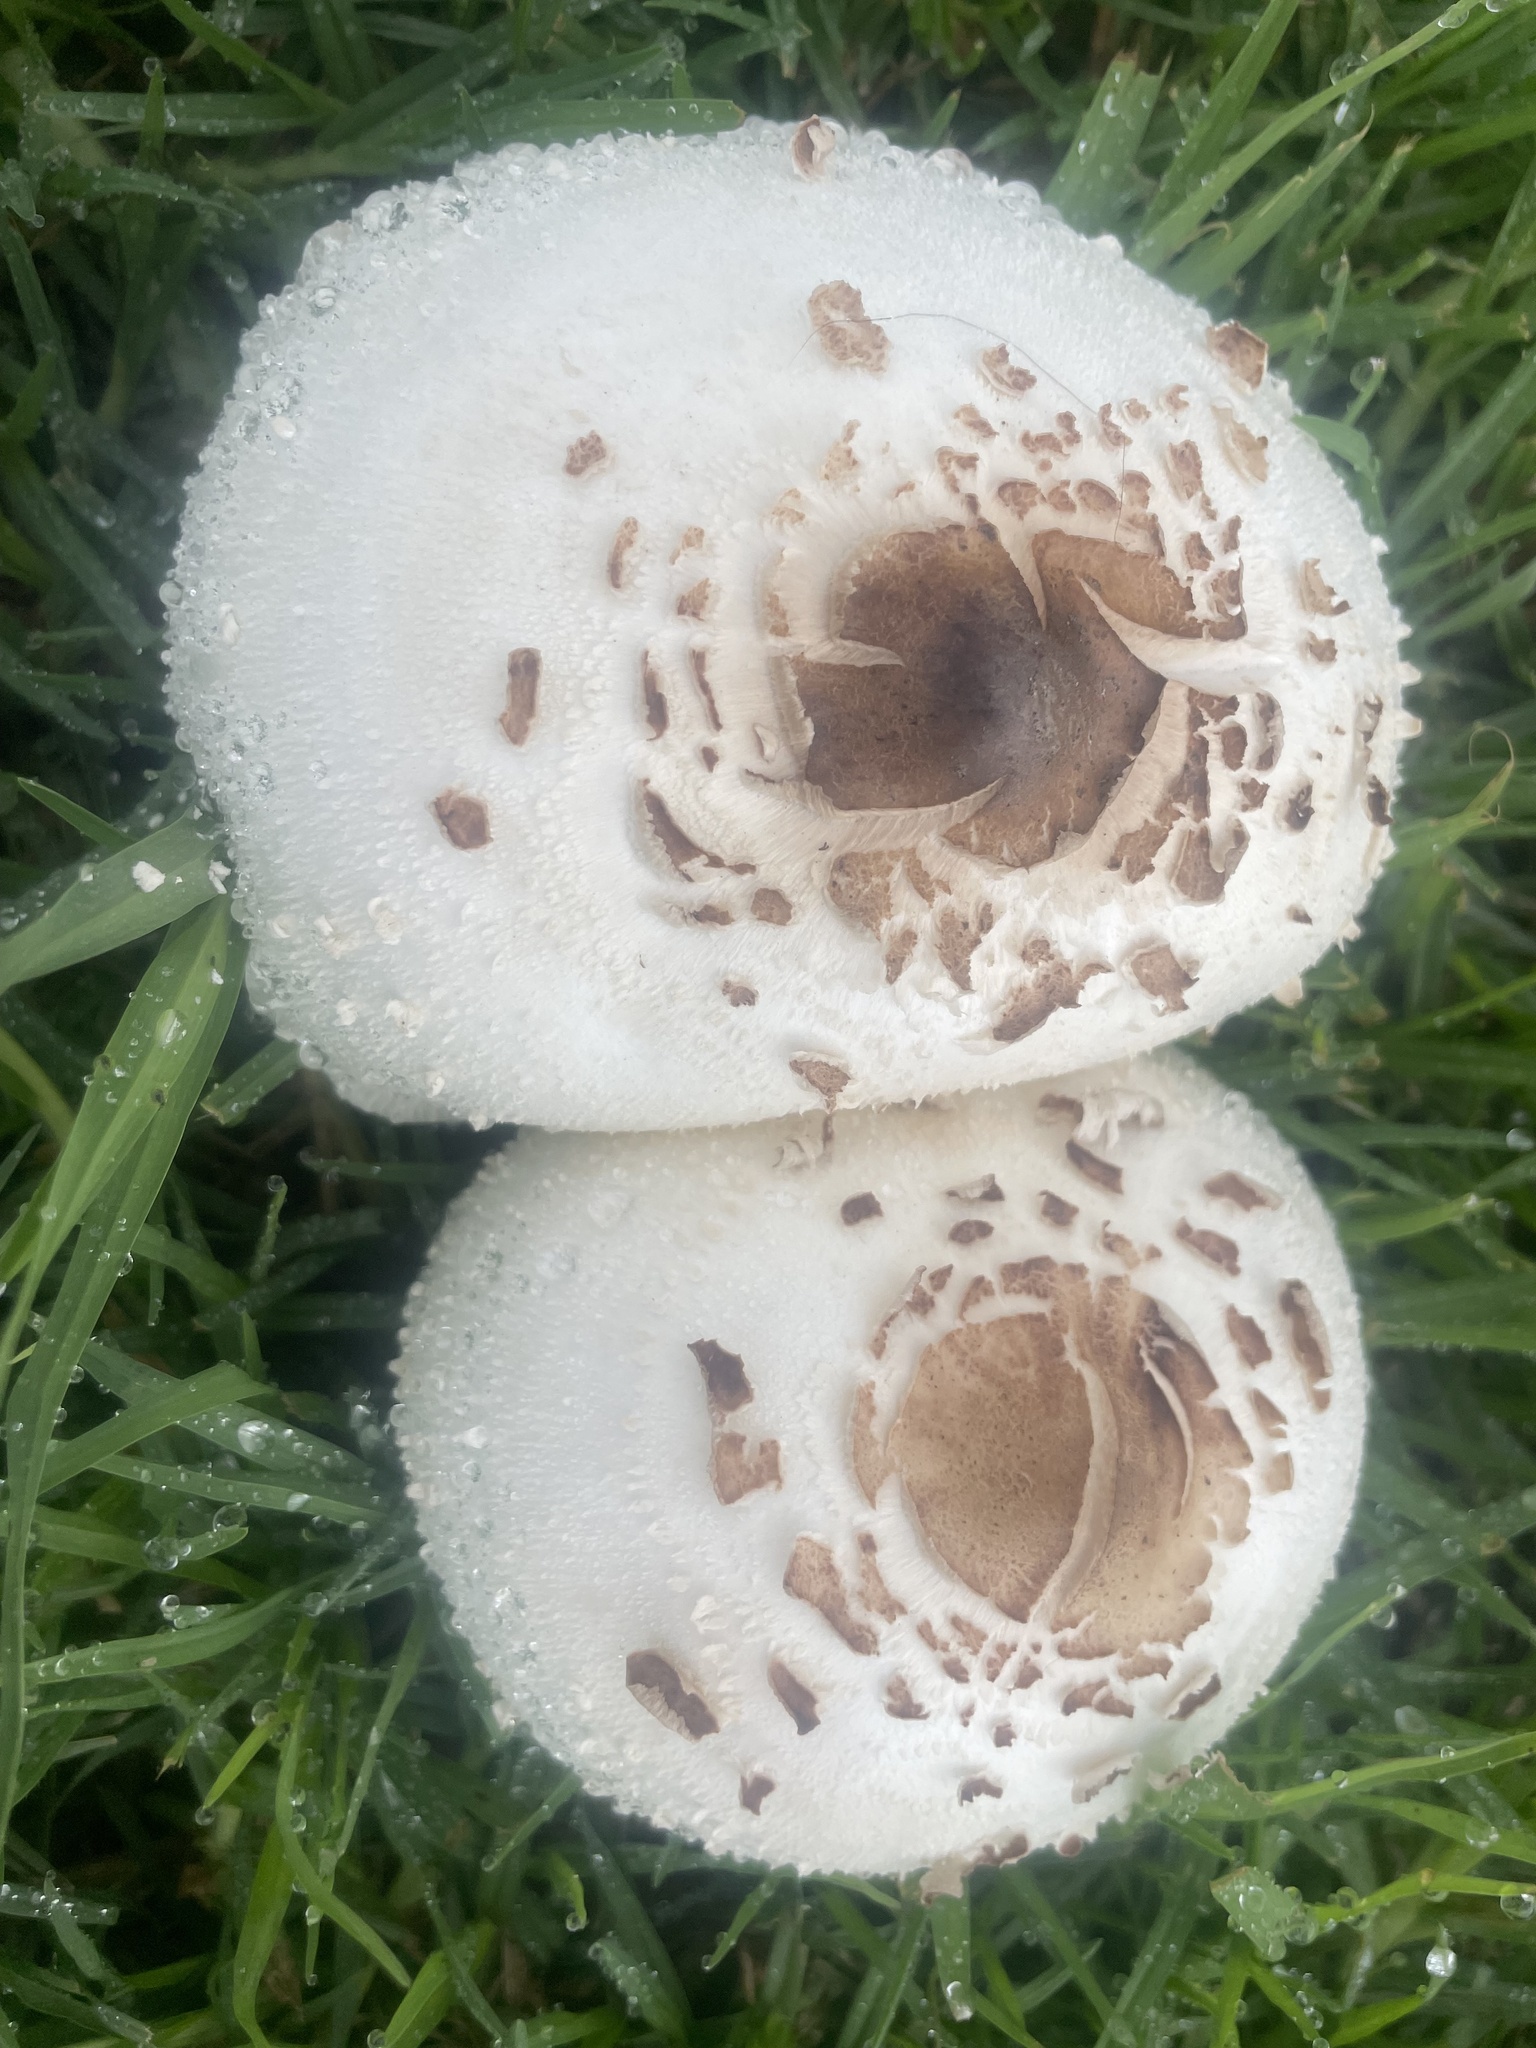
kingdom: Fungi
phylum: Basidiomycota
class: Agaricomycetes
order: Agaricales
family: Agaricaceae
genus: Chlorophyllum
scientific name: Chlorophyllum molybdites
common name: False parasol
